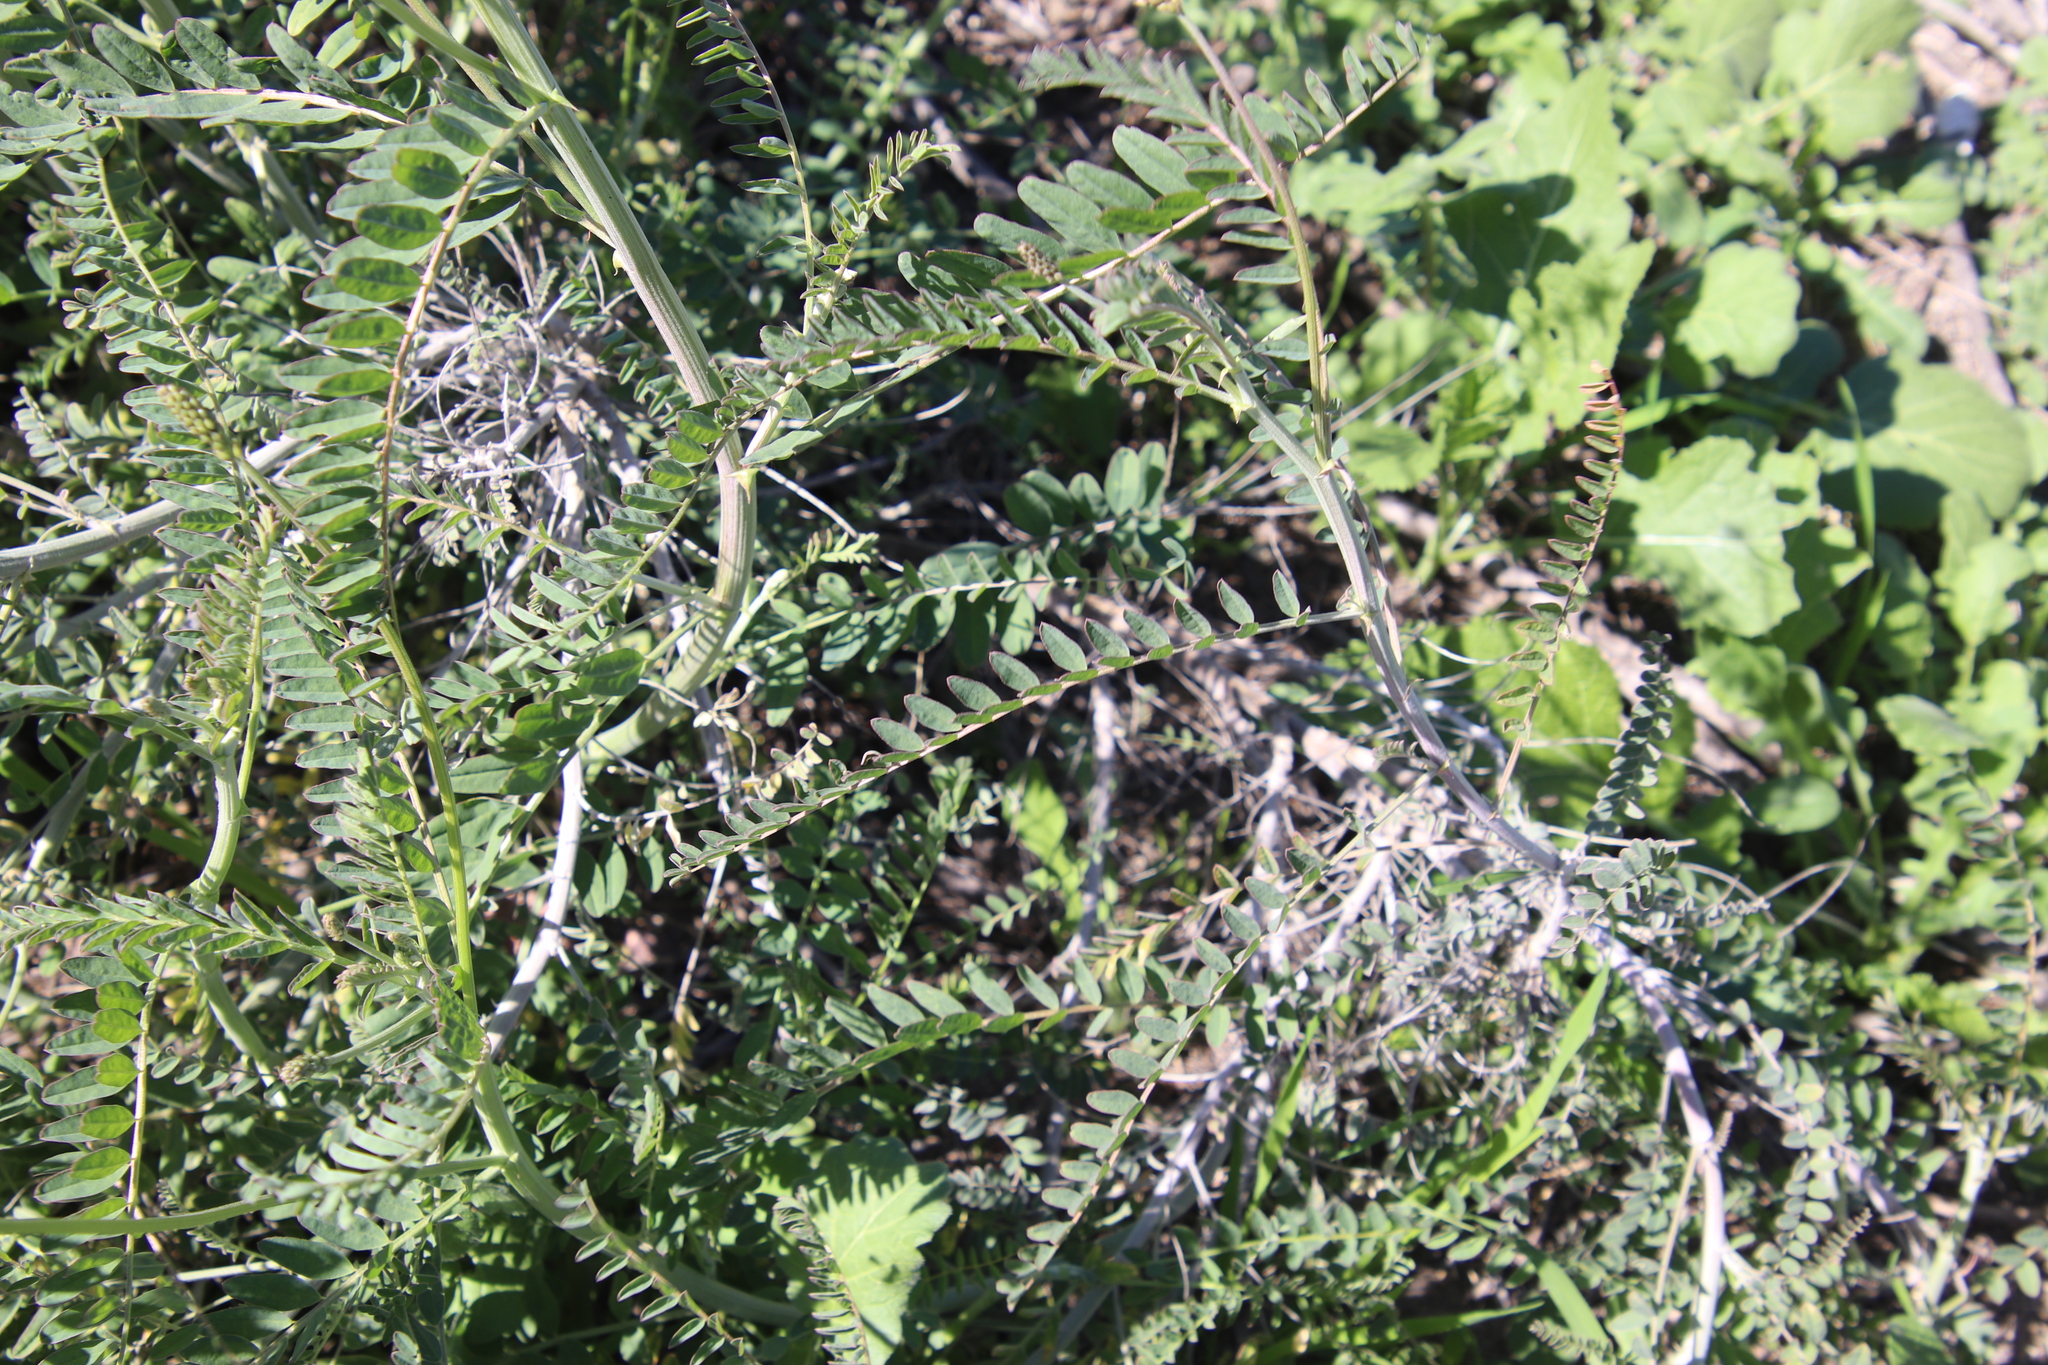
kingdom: Plantae
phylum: Tracheophyta
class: Magnoliopsida
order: Fabales
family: Fabaceae
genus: Astragalus
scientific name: Astragalus trichopodus
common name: Santa barbara milk-vetch
